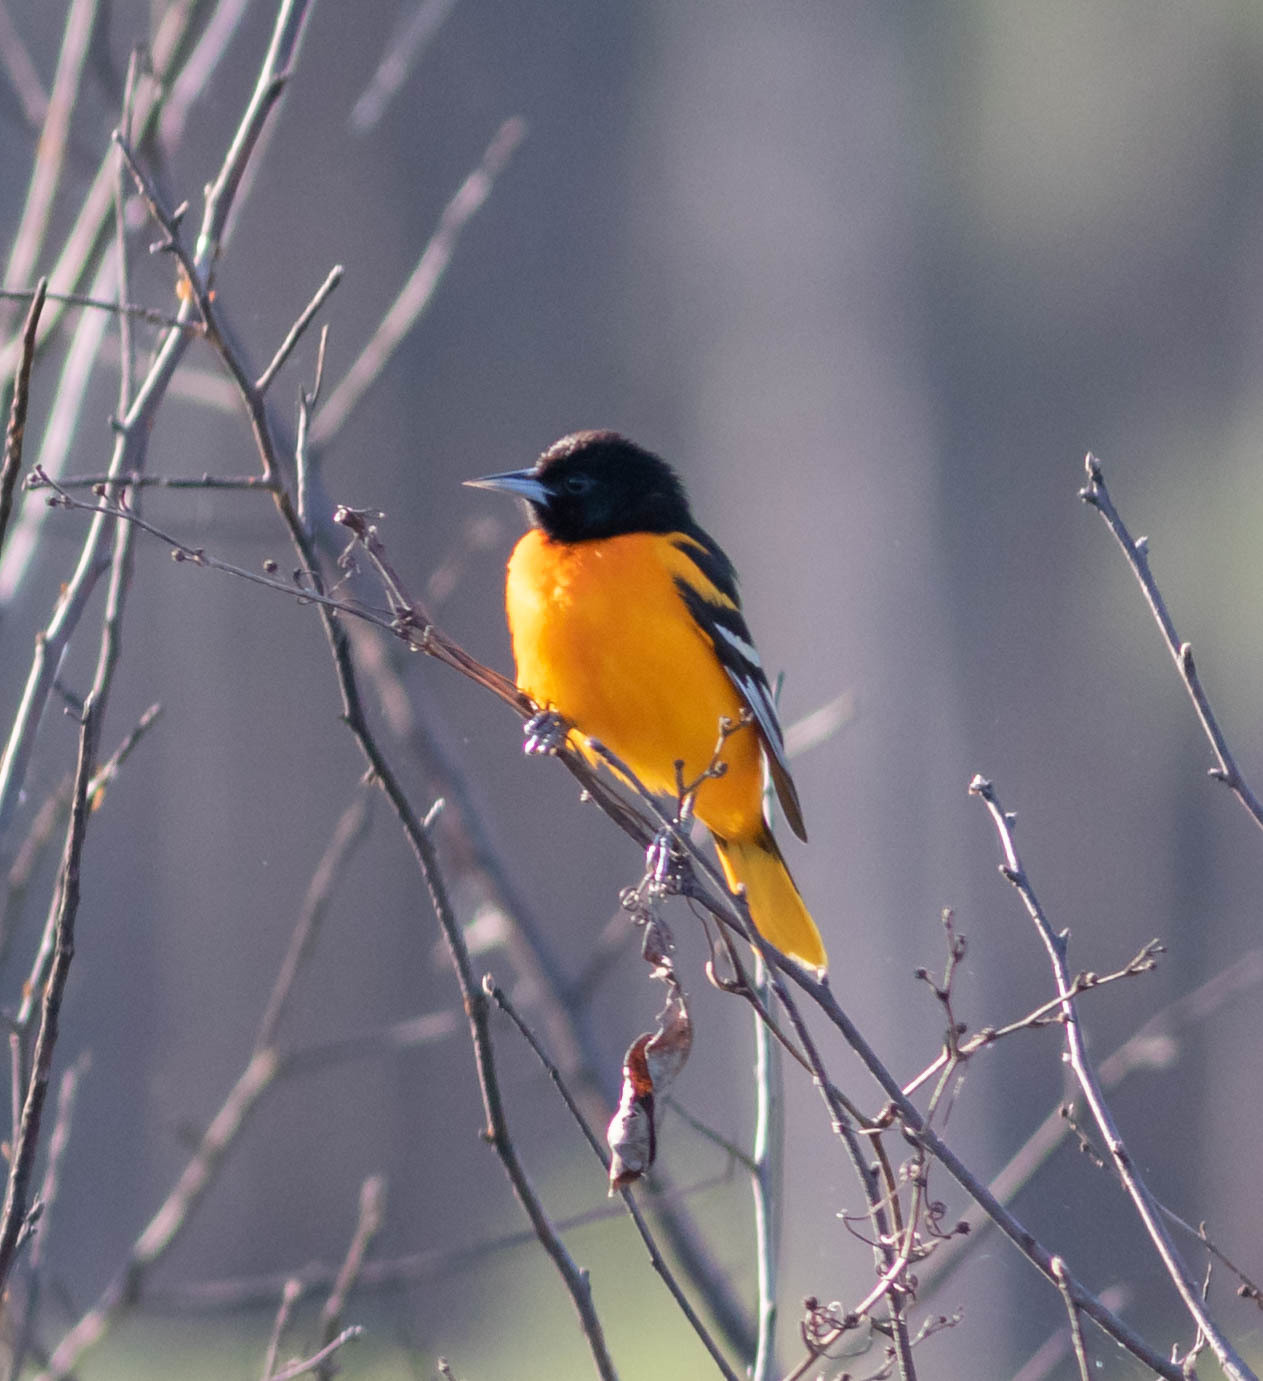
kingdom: Animalia
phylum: Chordata
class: Aves
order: Passeriformes
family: Icteridae
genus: Icterus
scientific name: Icterus galbula
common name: Baltimore oriole
